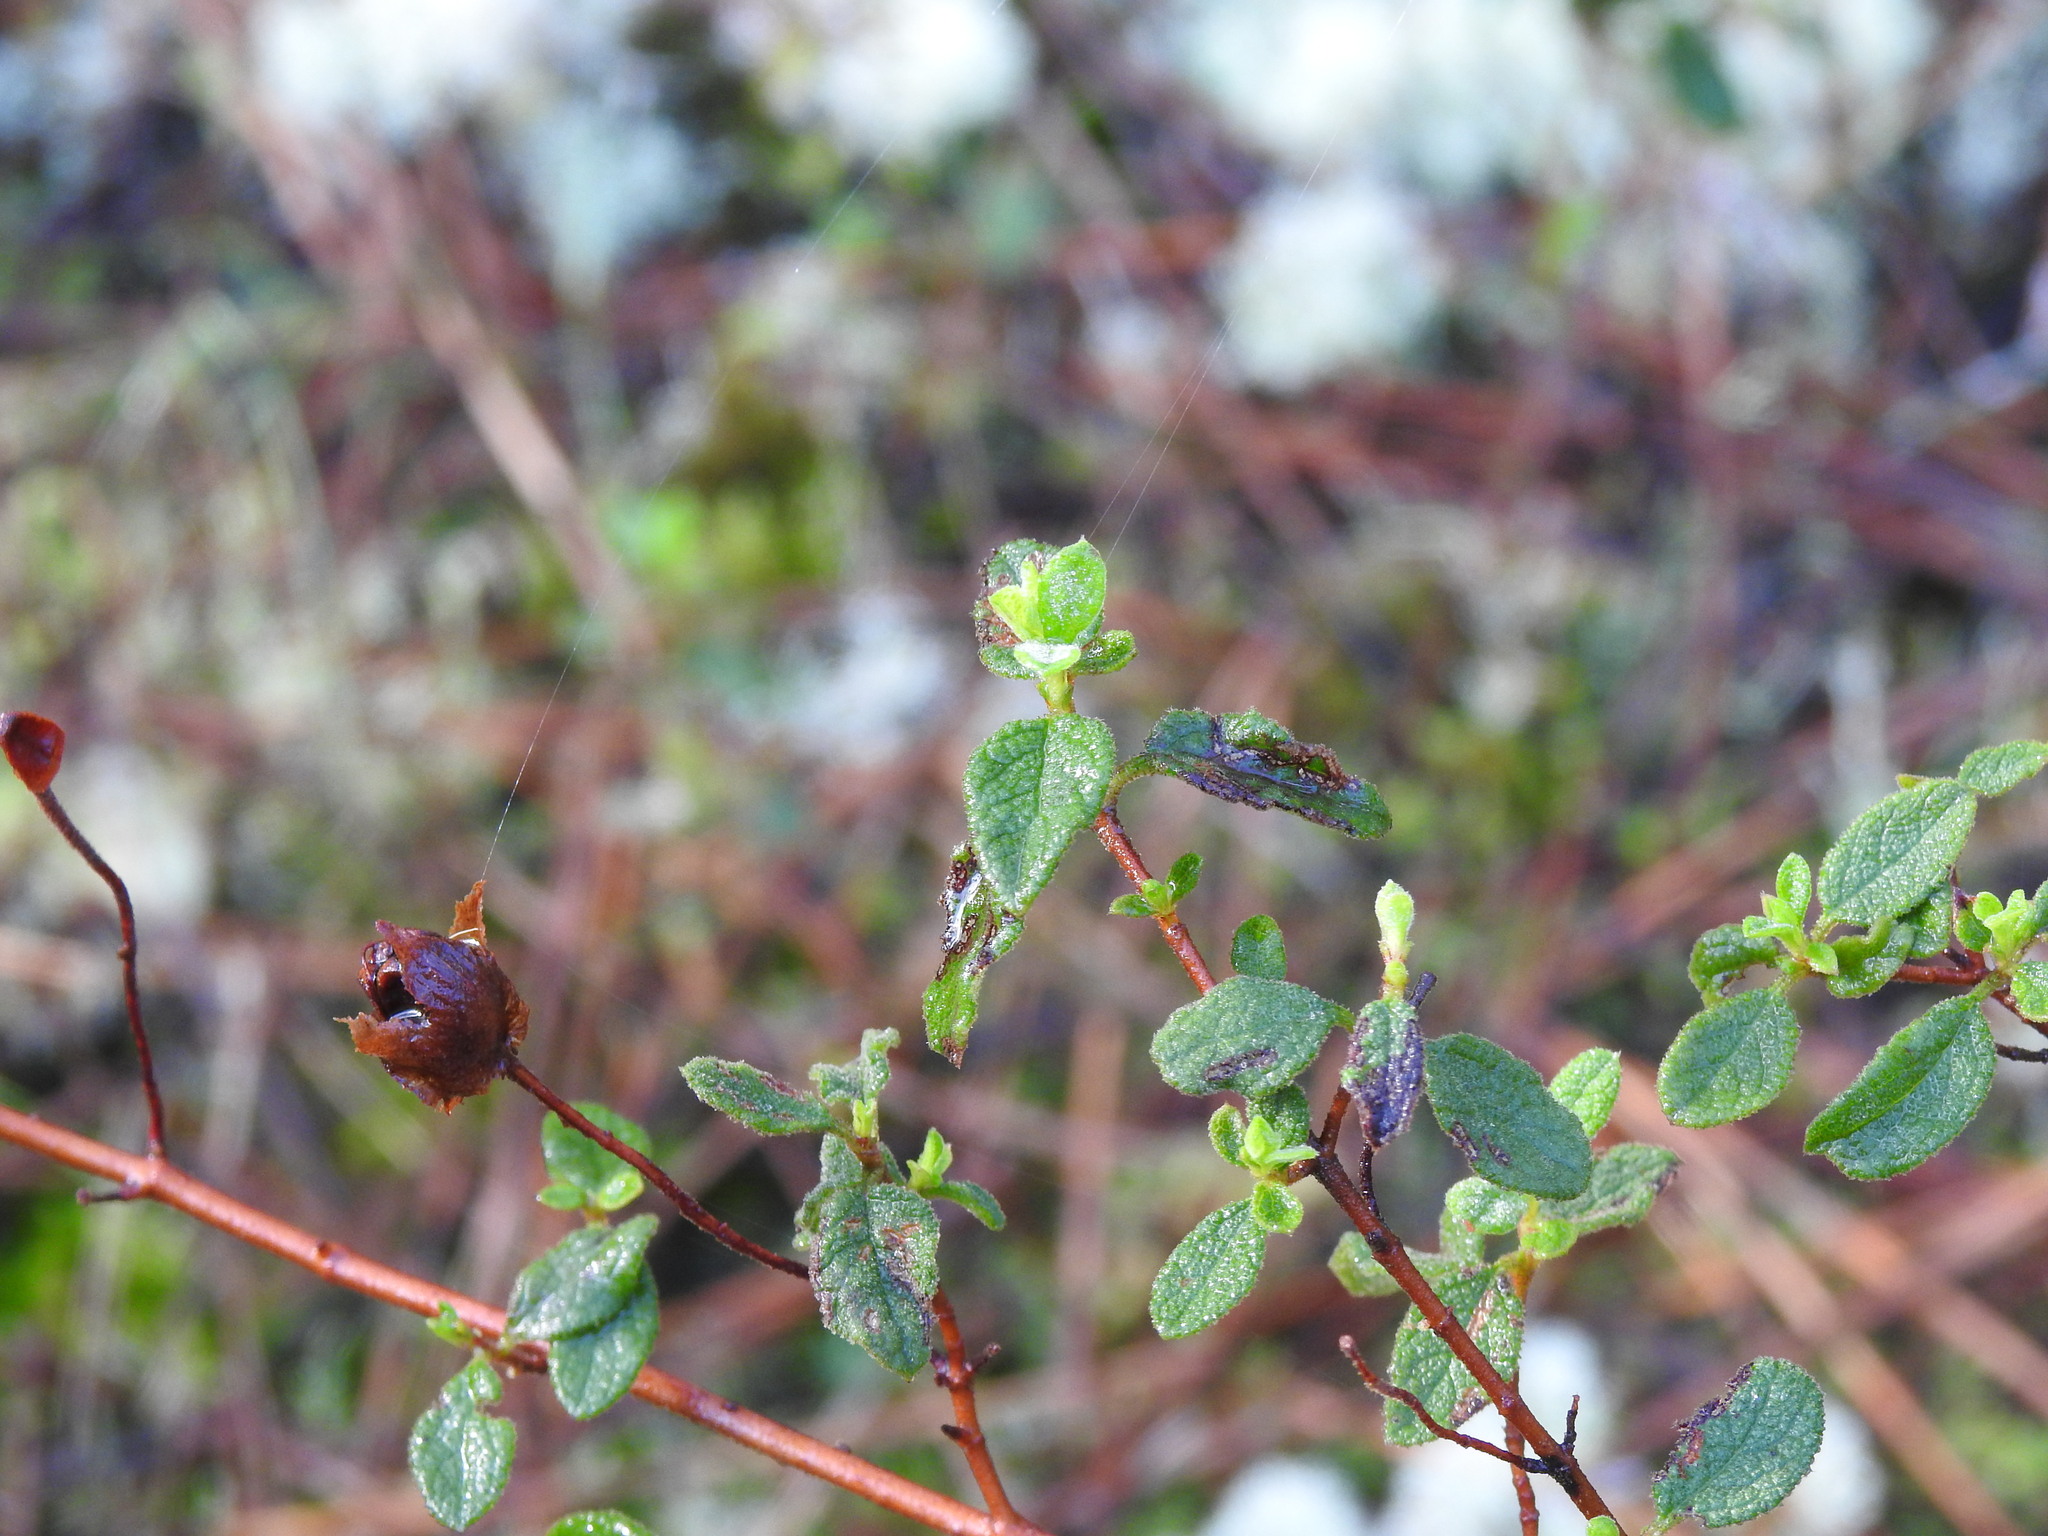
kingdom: Plantae
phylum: Tracheophyta
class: Magnoliopsida
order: Malvales
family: Cistaceae
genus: Cistus
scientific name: Cistus salviifolius
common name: Salvia cistus
